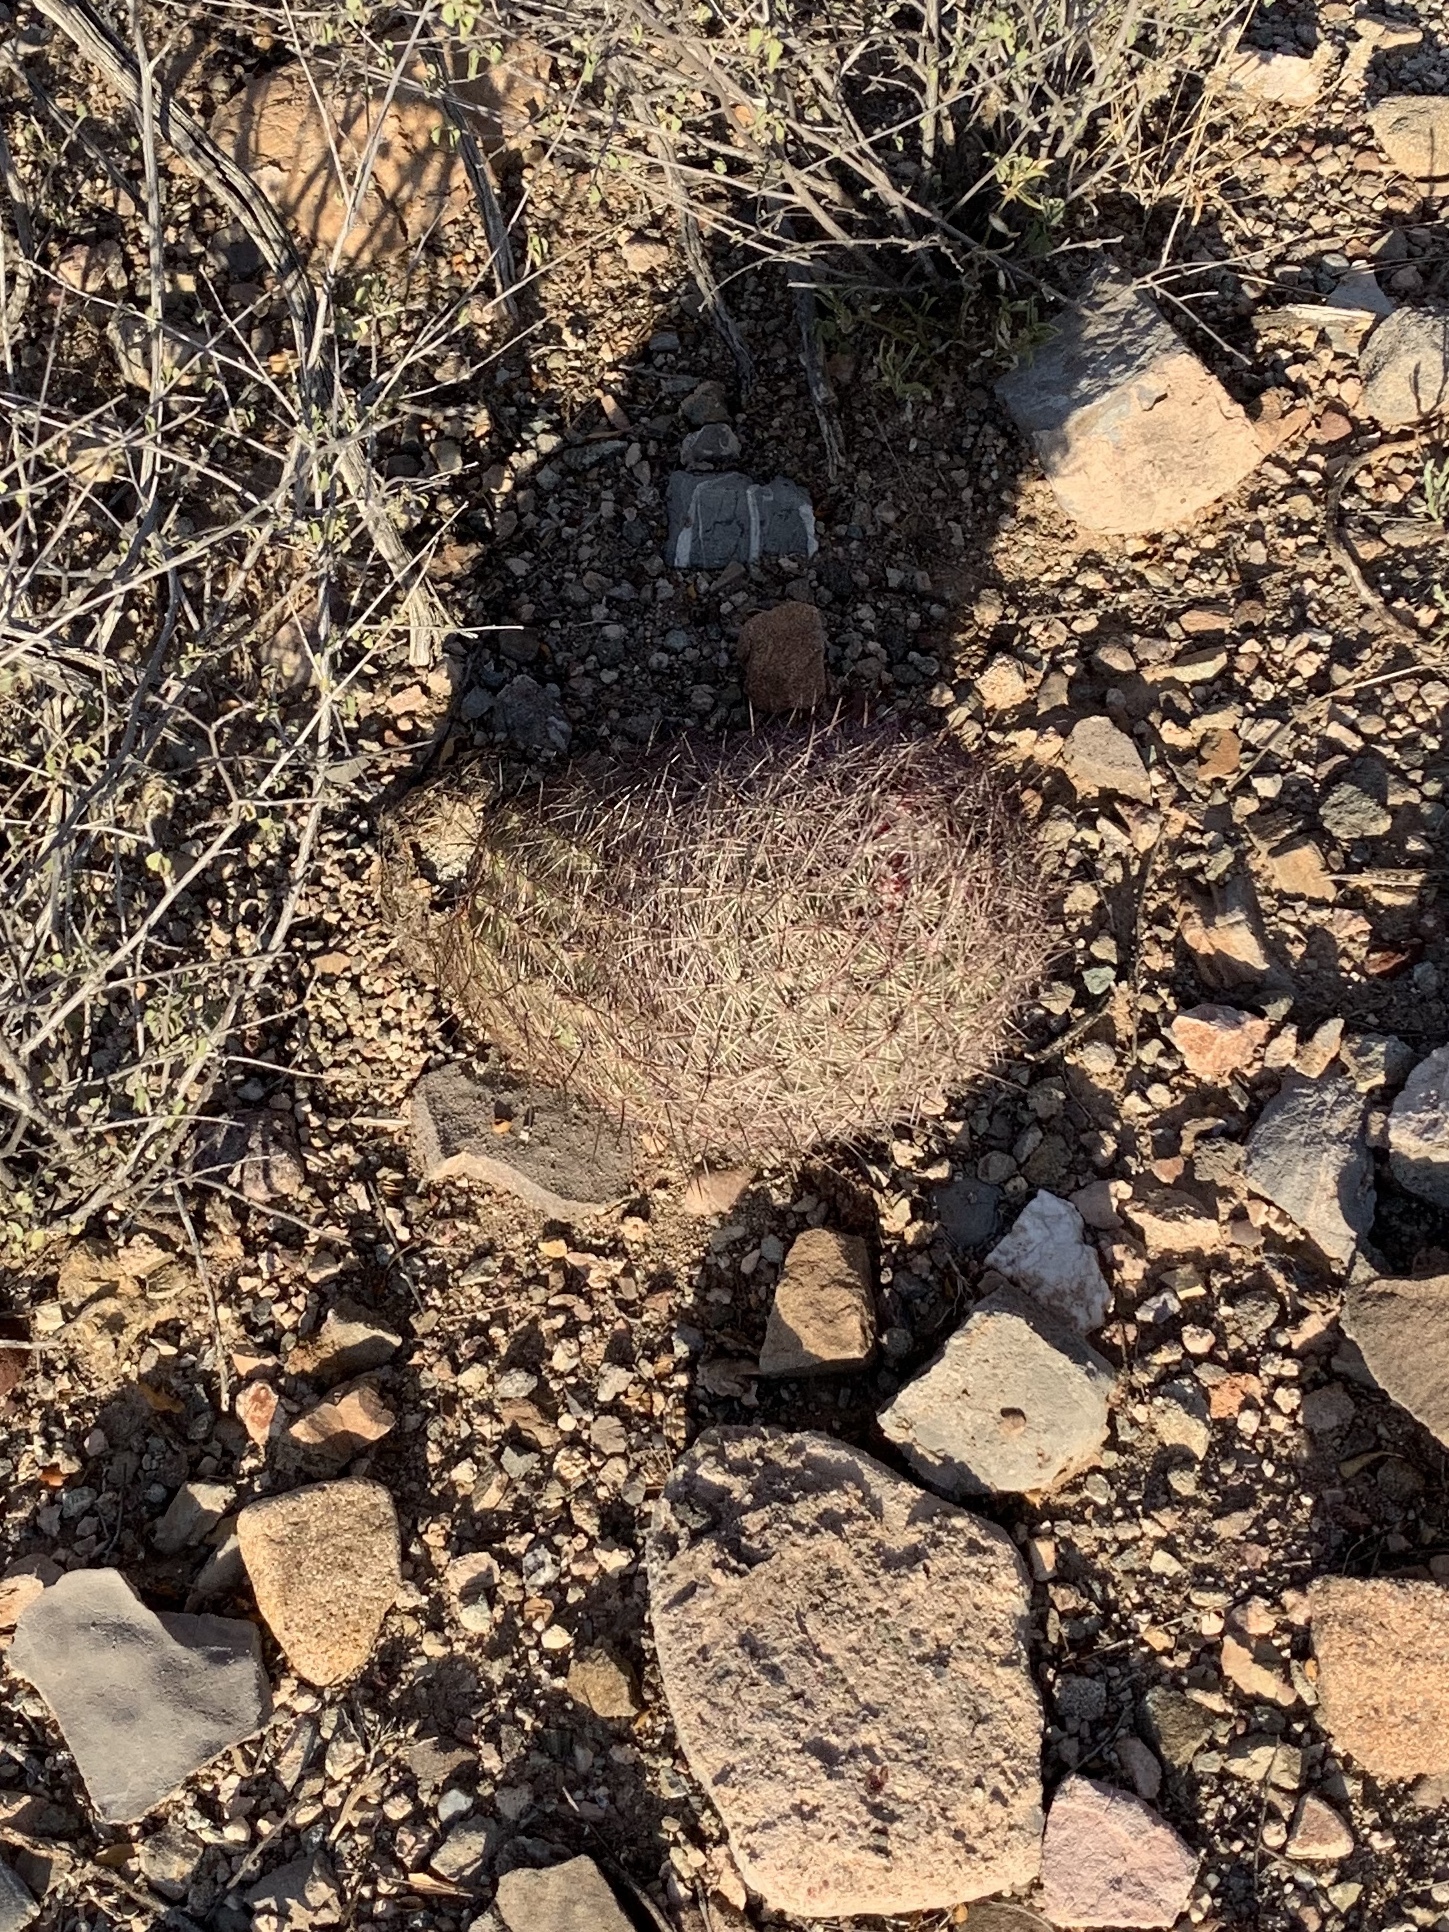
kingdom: Plantae
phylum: Tracheophyta
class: Magnoliopsida
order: Caryophyllales
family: Cactaceae
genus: Sclerocactus
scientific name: Sclerocactus johnsonii
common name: Eight-spine fishhook cactus
